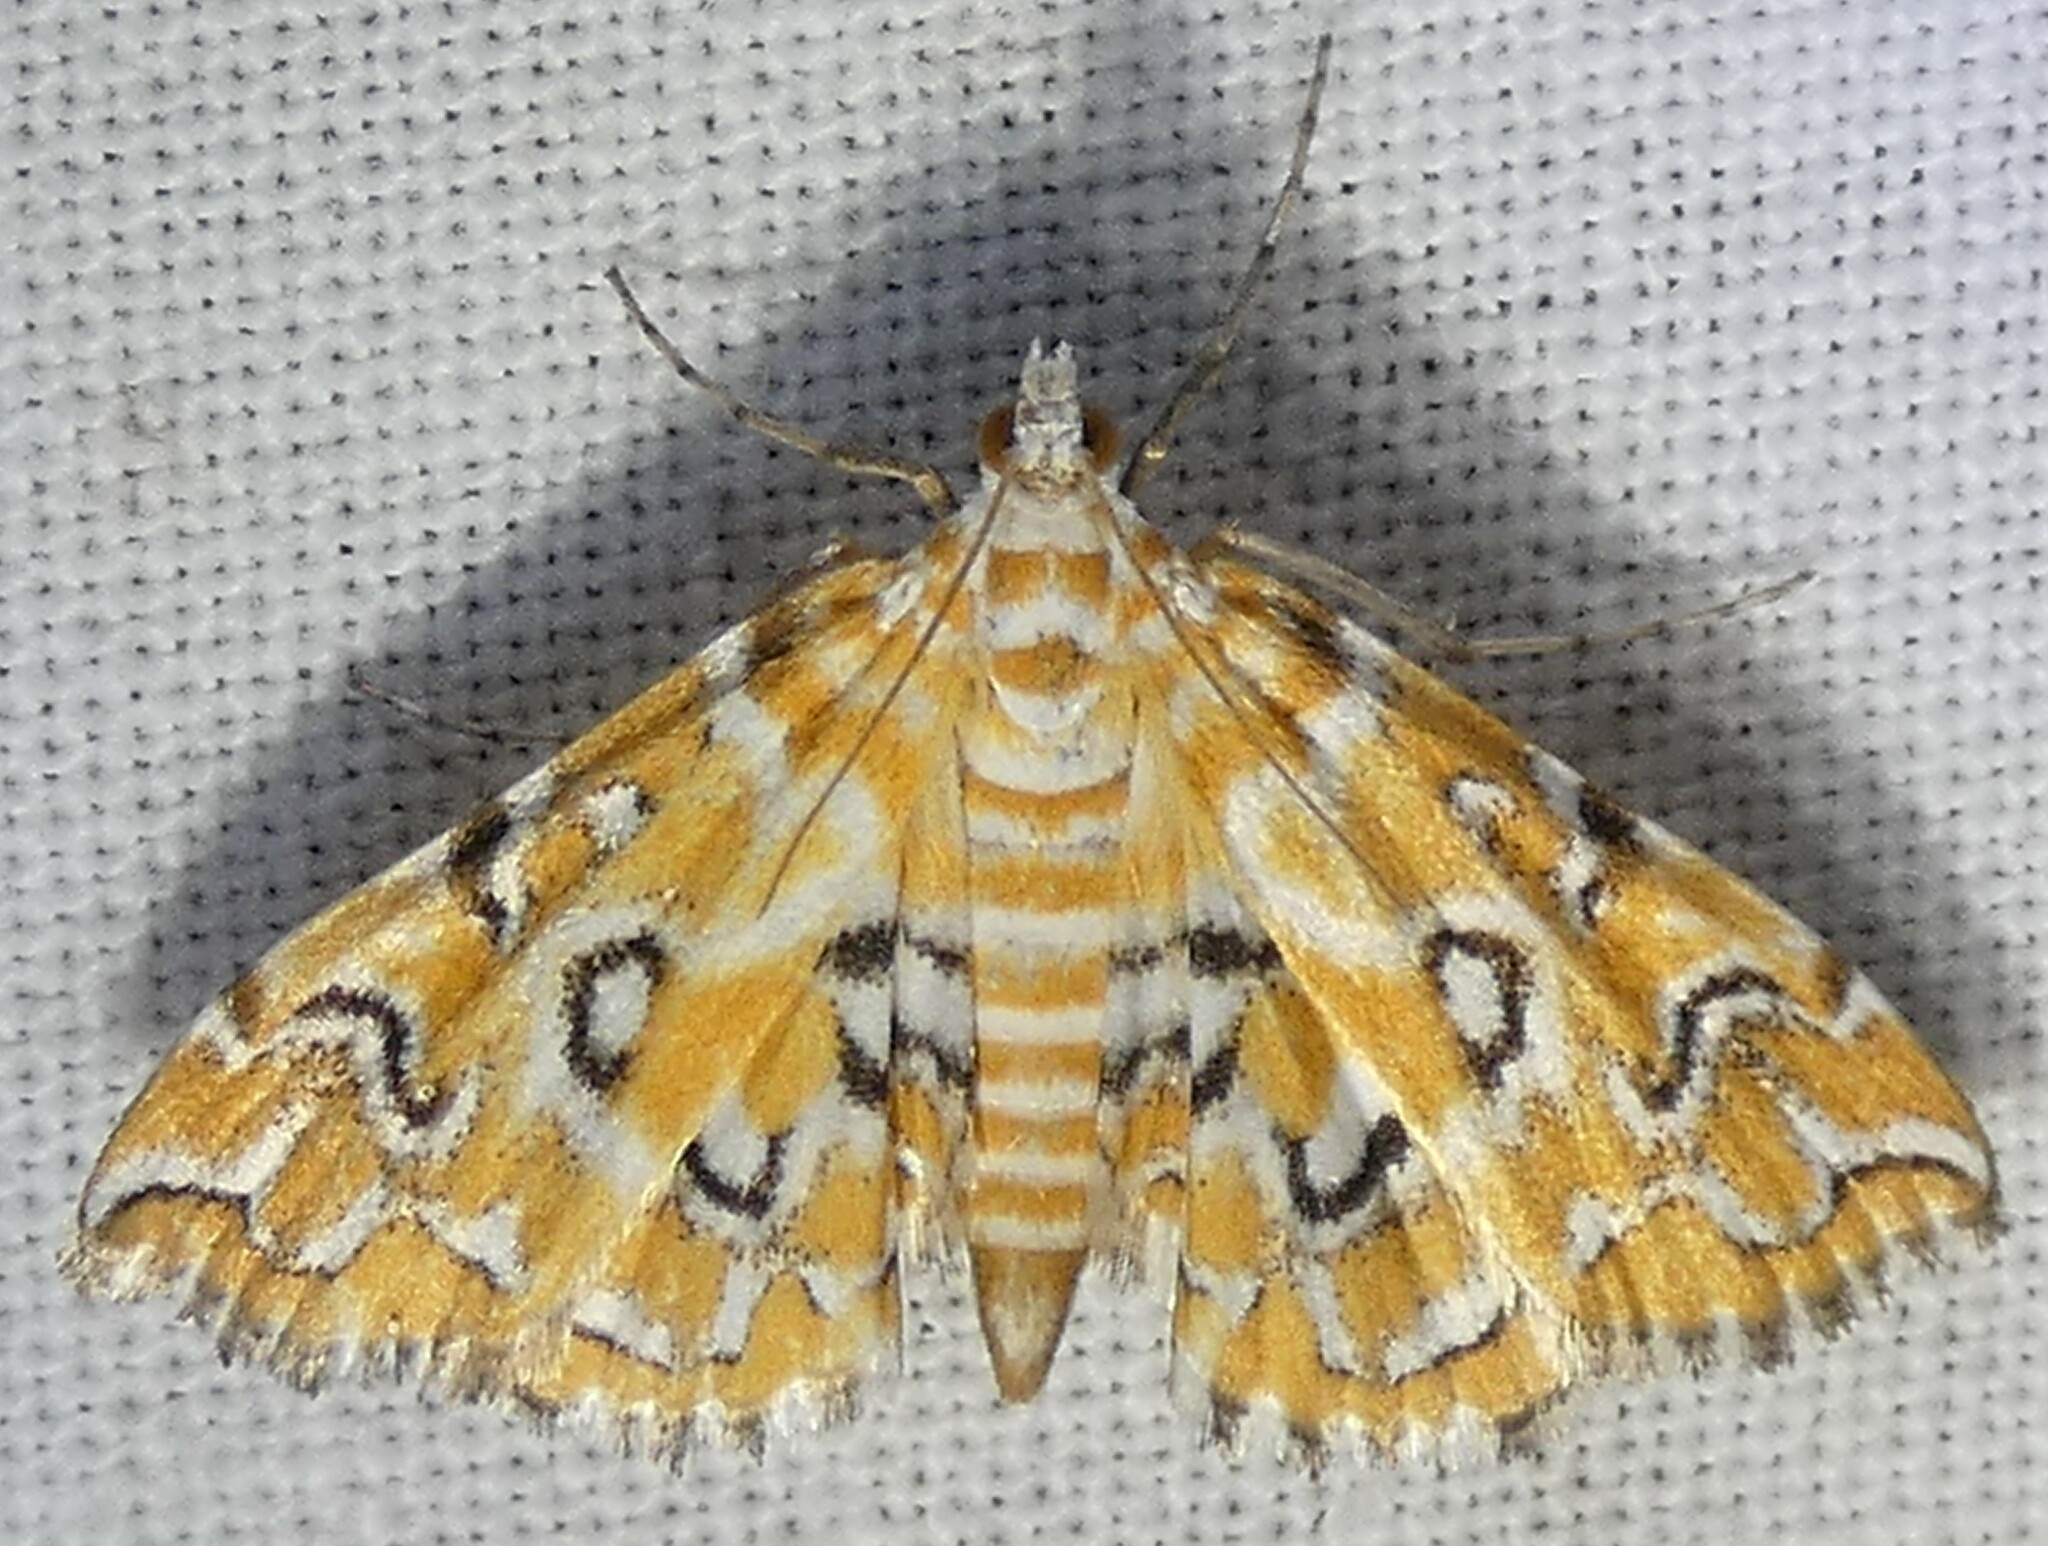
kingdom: Animalia
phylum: Arthropoda
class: Insecta
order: Lepidoptera
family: Crambidae
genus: Elophila
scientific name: Elophila icciusalis
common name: Pondside pyralid moth
